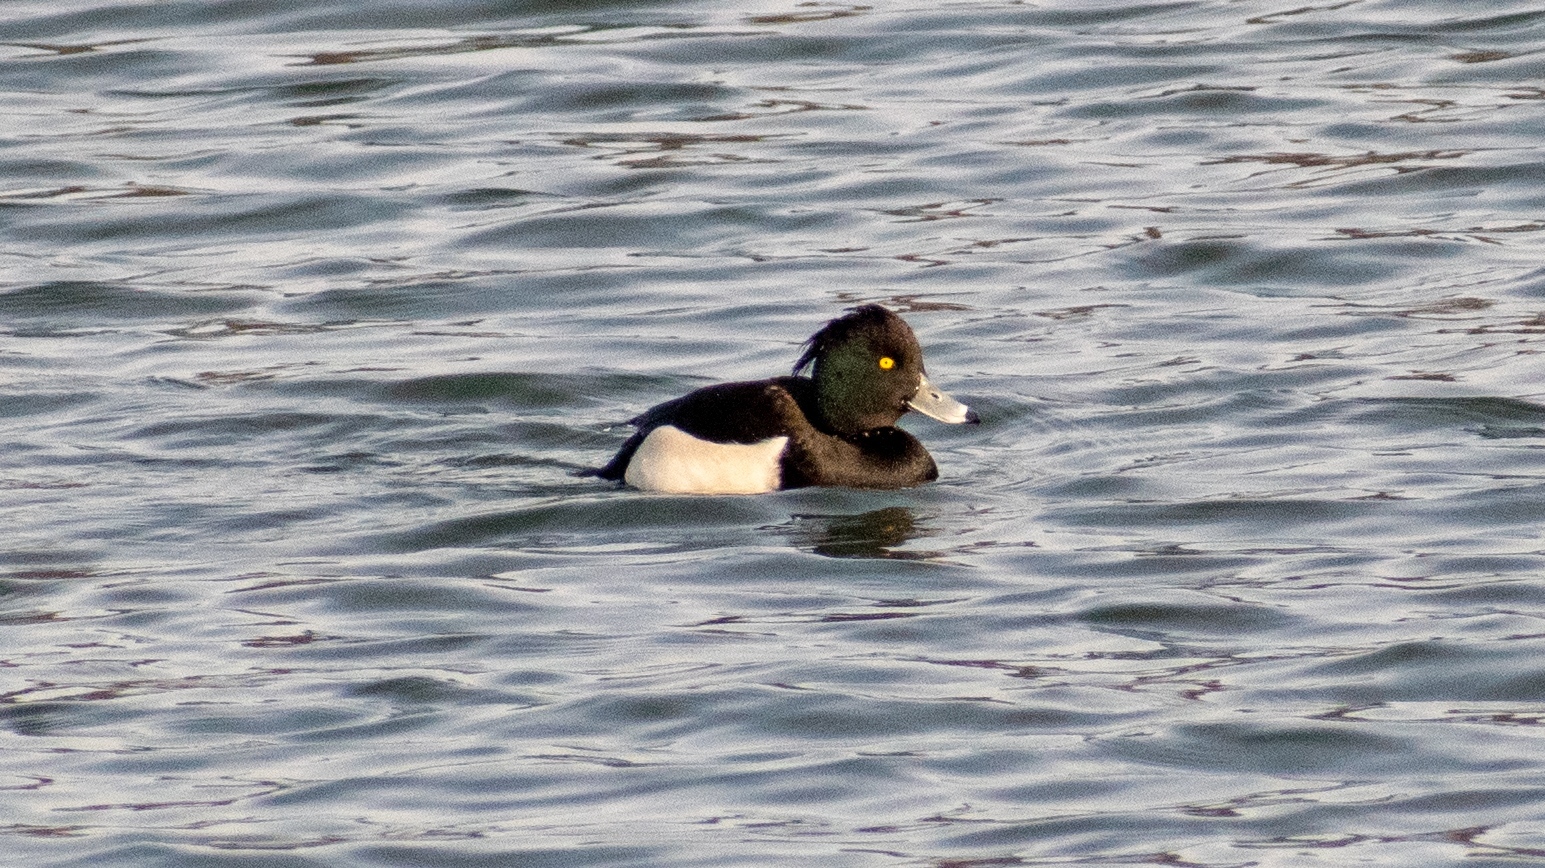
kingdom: Animalia
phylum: Chordata
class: Aves
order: Anseriformes
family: Anatidae
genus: Aythya
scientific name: Aythya fuligula
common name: Tufted duck
